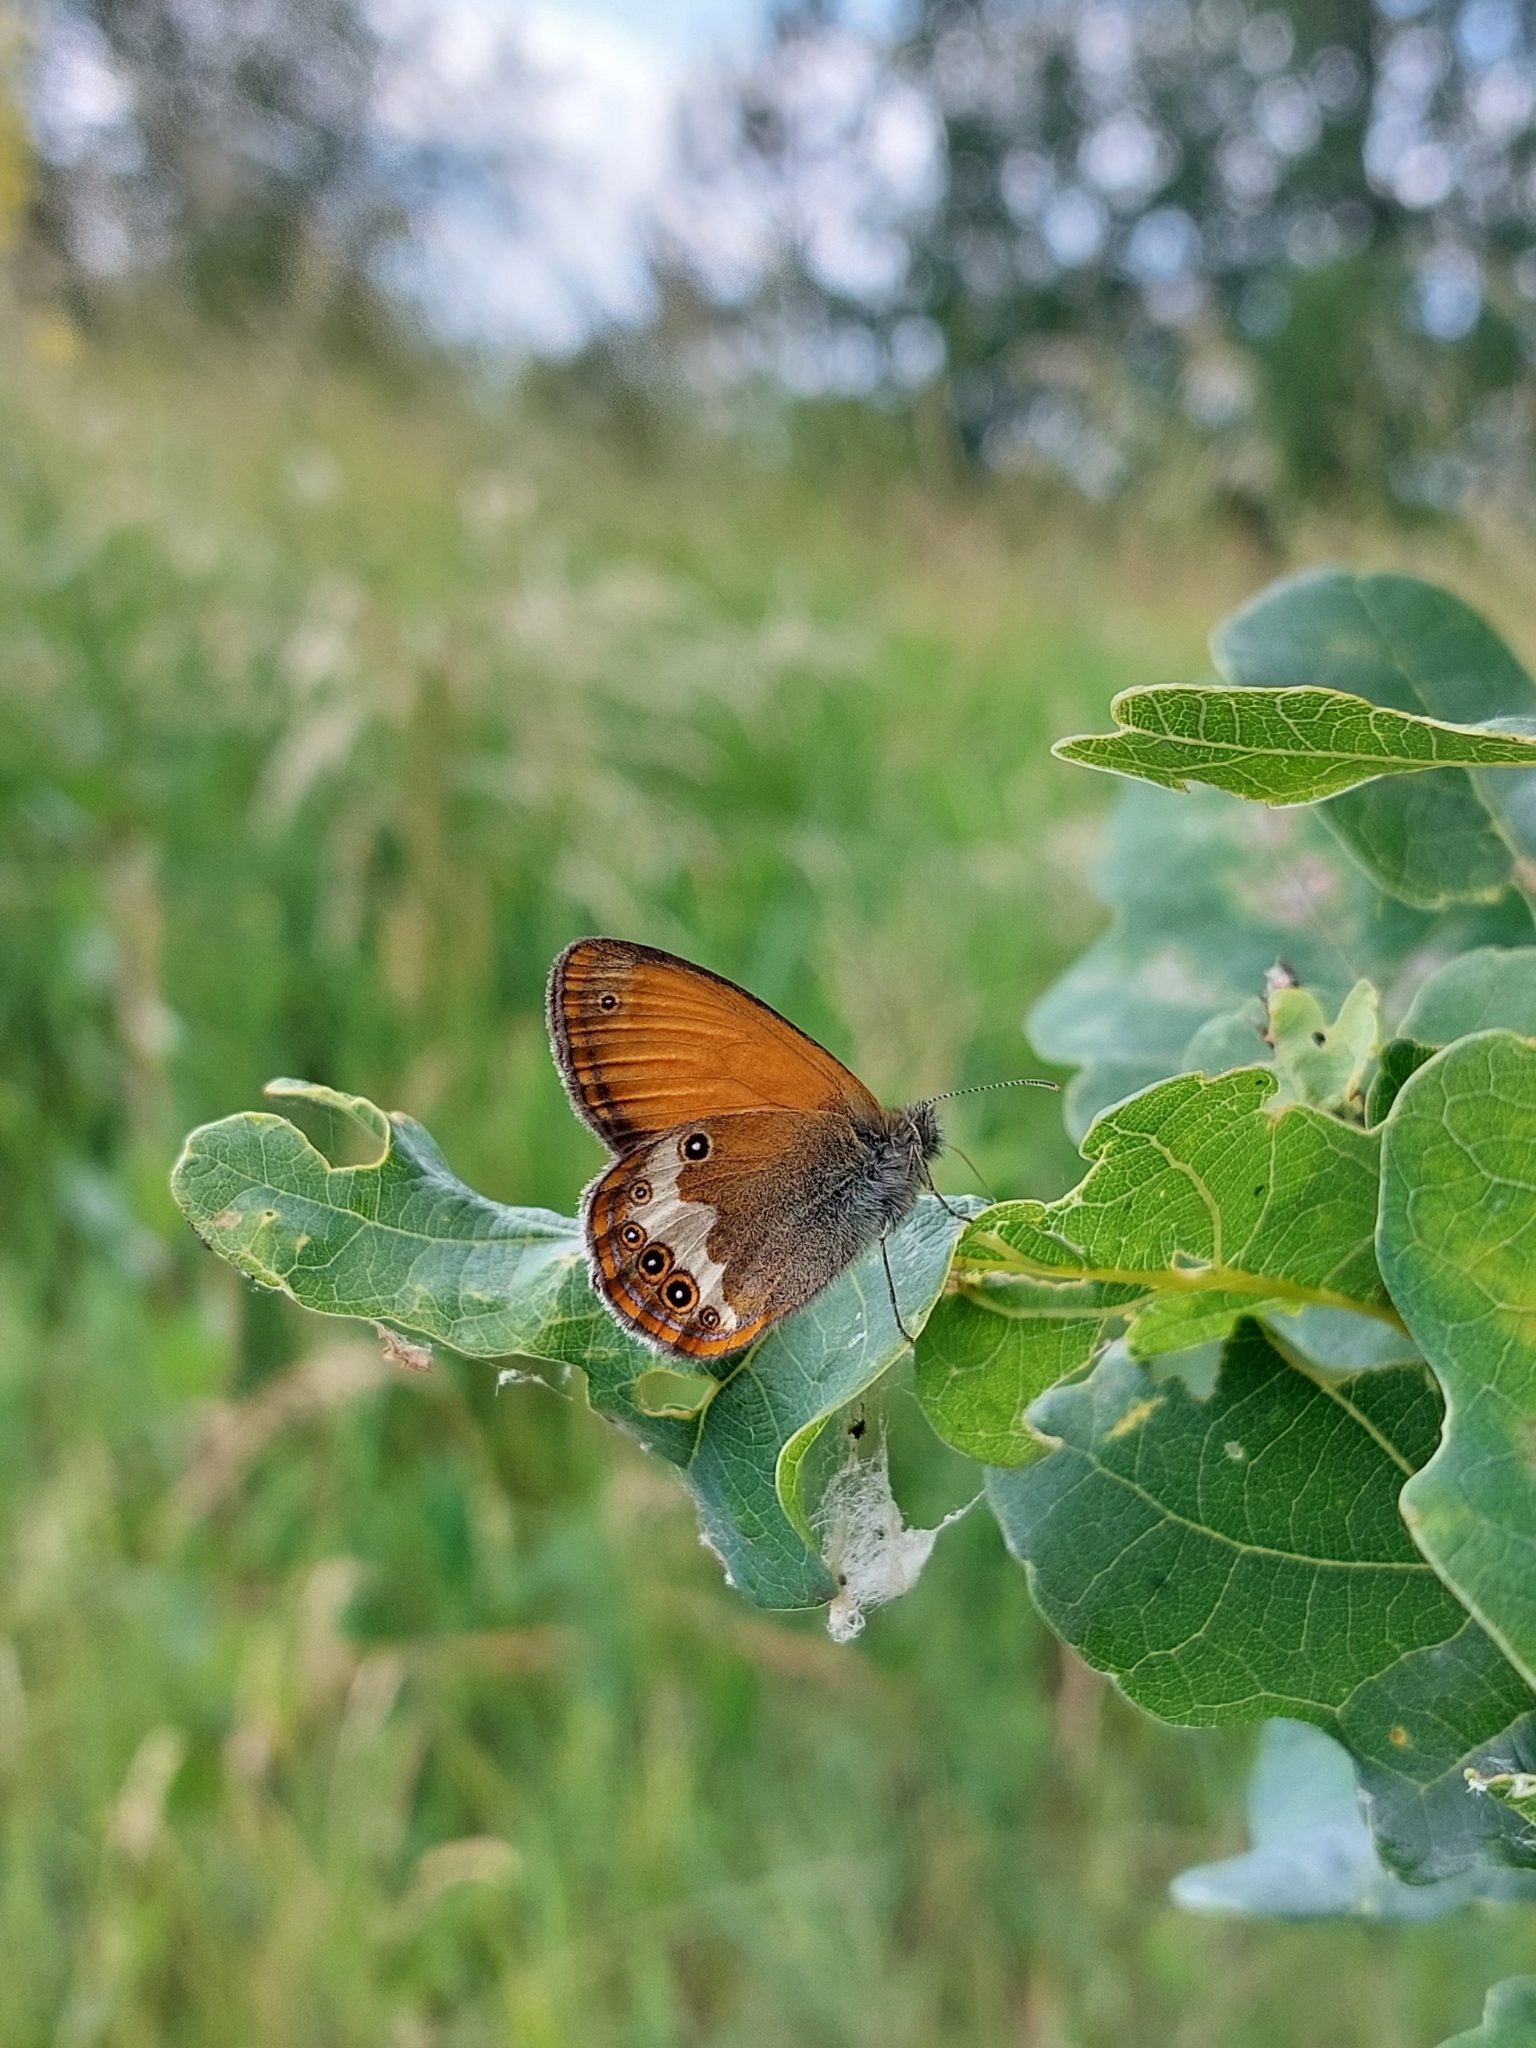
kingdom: Animalia
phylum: Arthropoda
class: Insecta
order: Lepidoptera
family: Nymphalidae
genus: Coenonympha
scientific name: Coenonympha arcania
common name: Pearly heath
